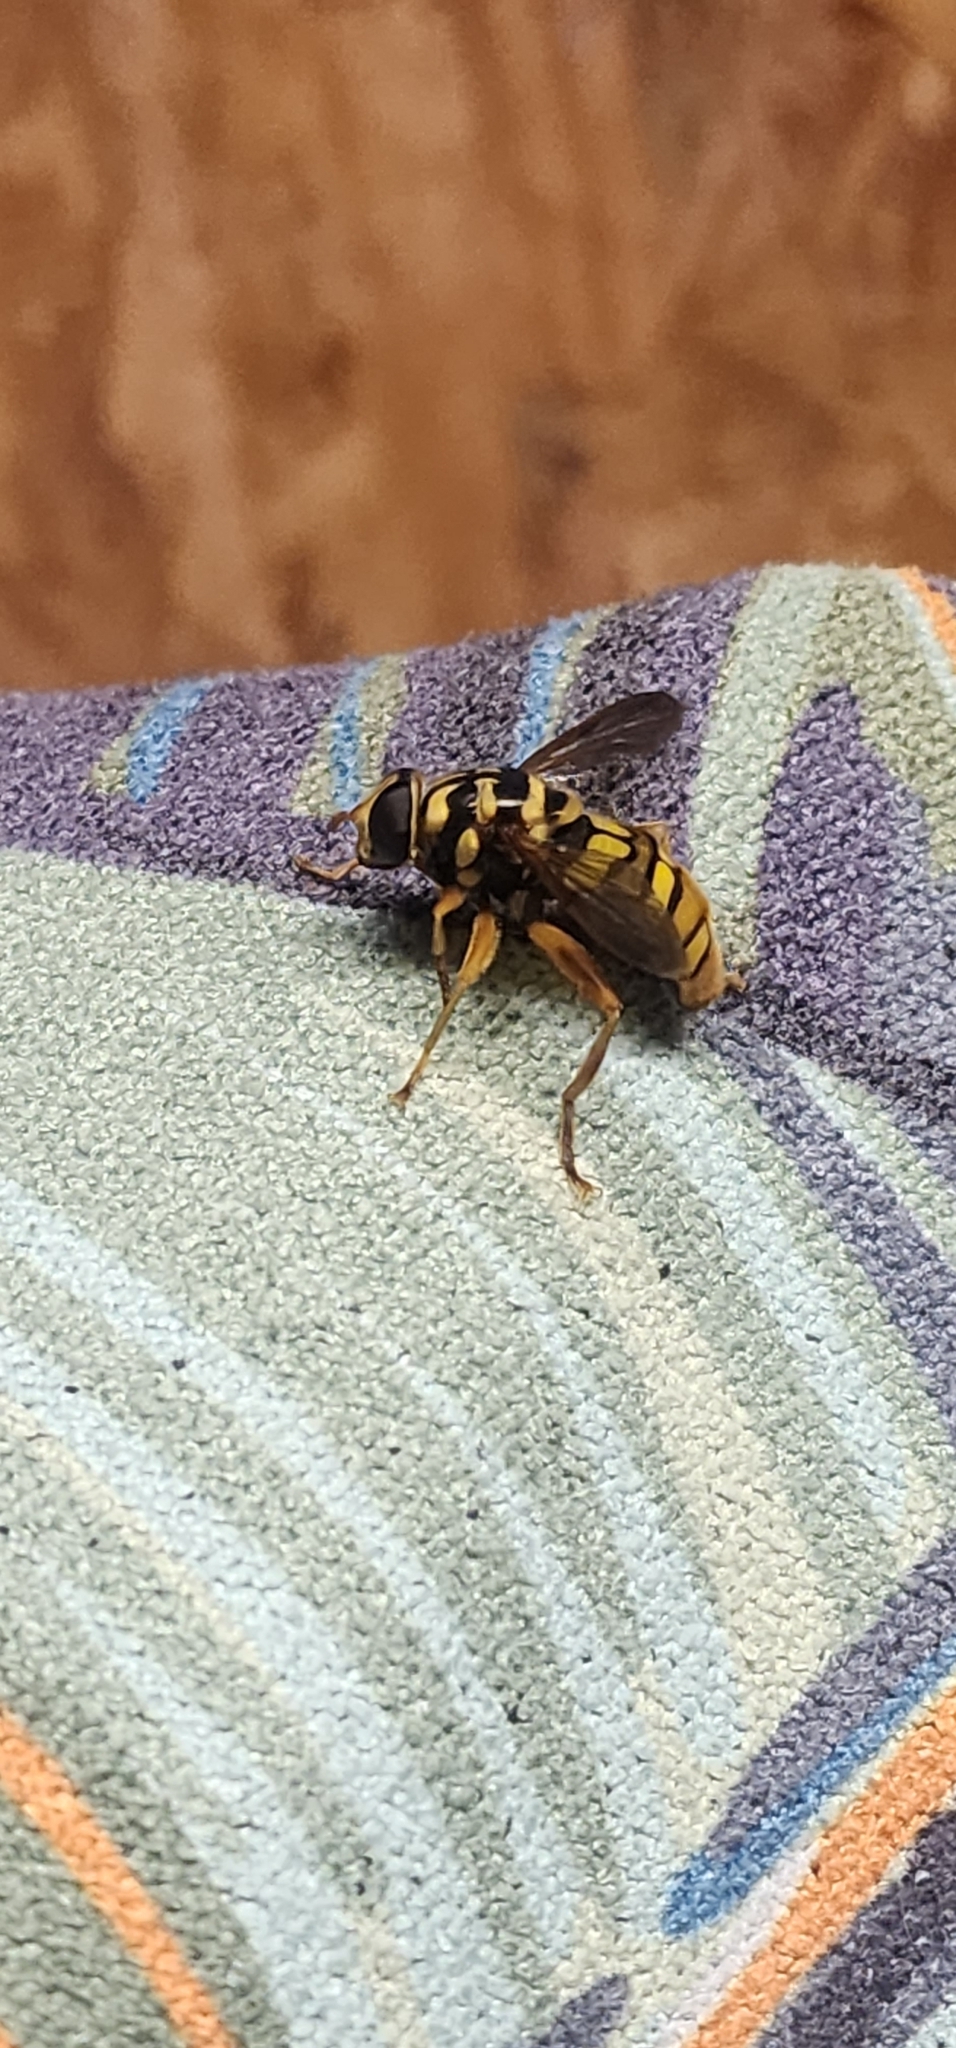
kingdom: Animalia
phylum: Arthropoda
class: Insecta
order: Diptera
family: Syrphidae
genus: Milesia
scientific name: Milesia virginiensis
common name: Virginia giant
